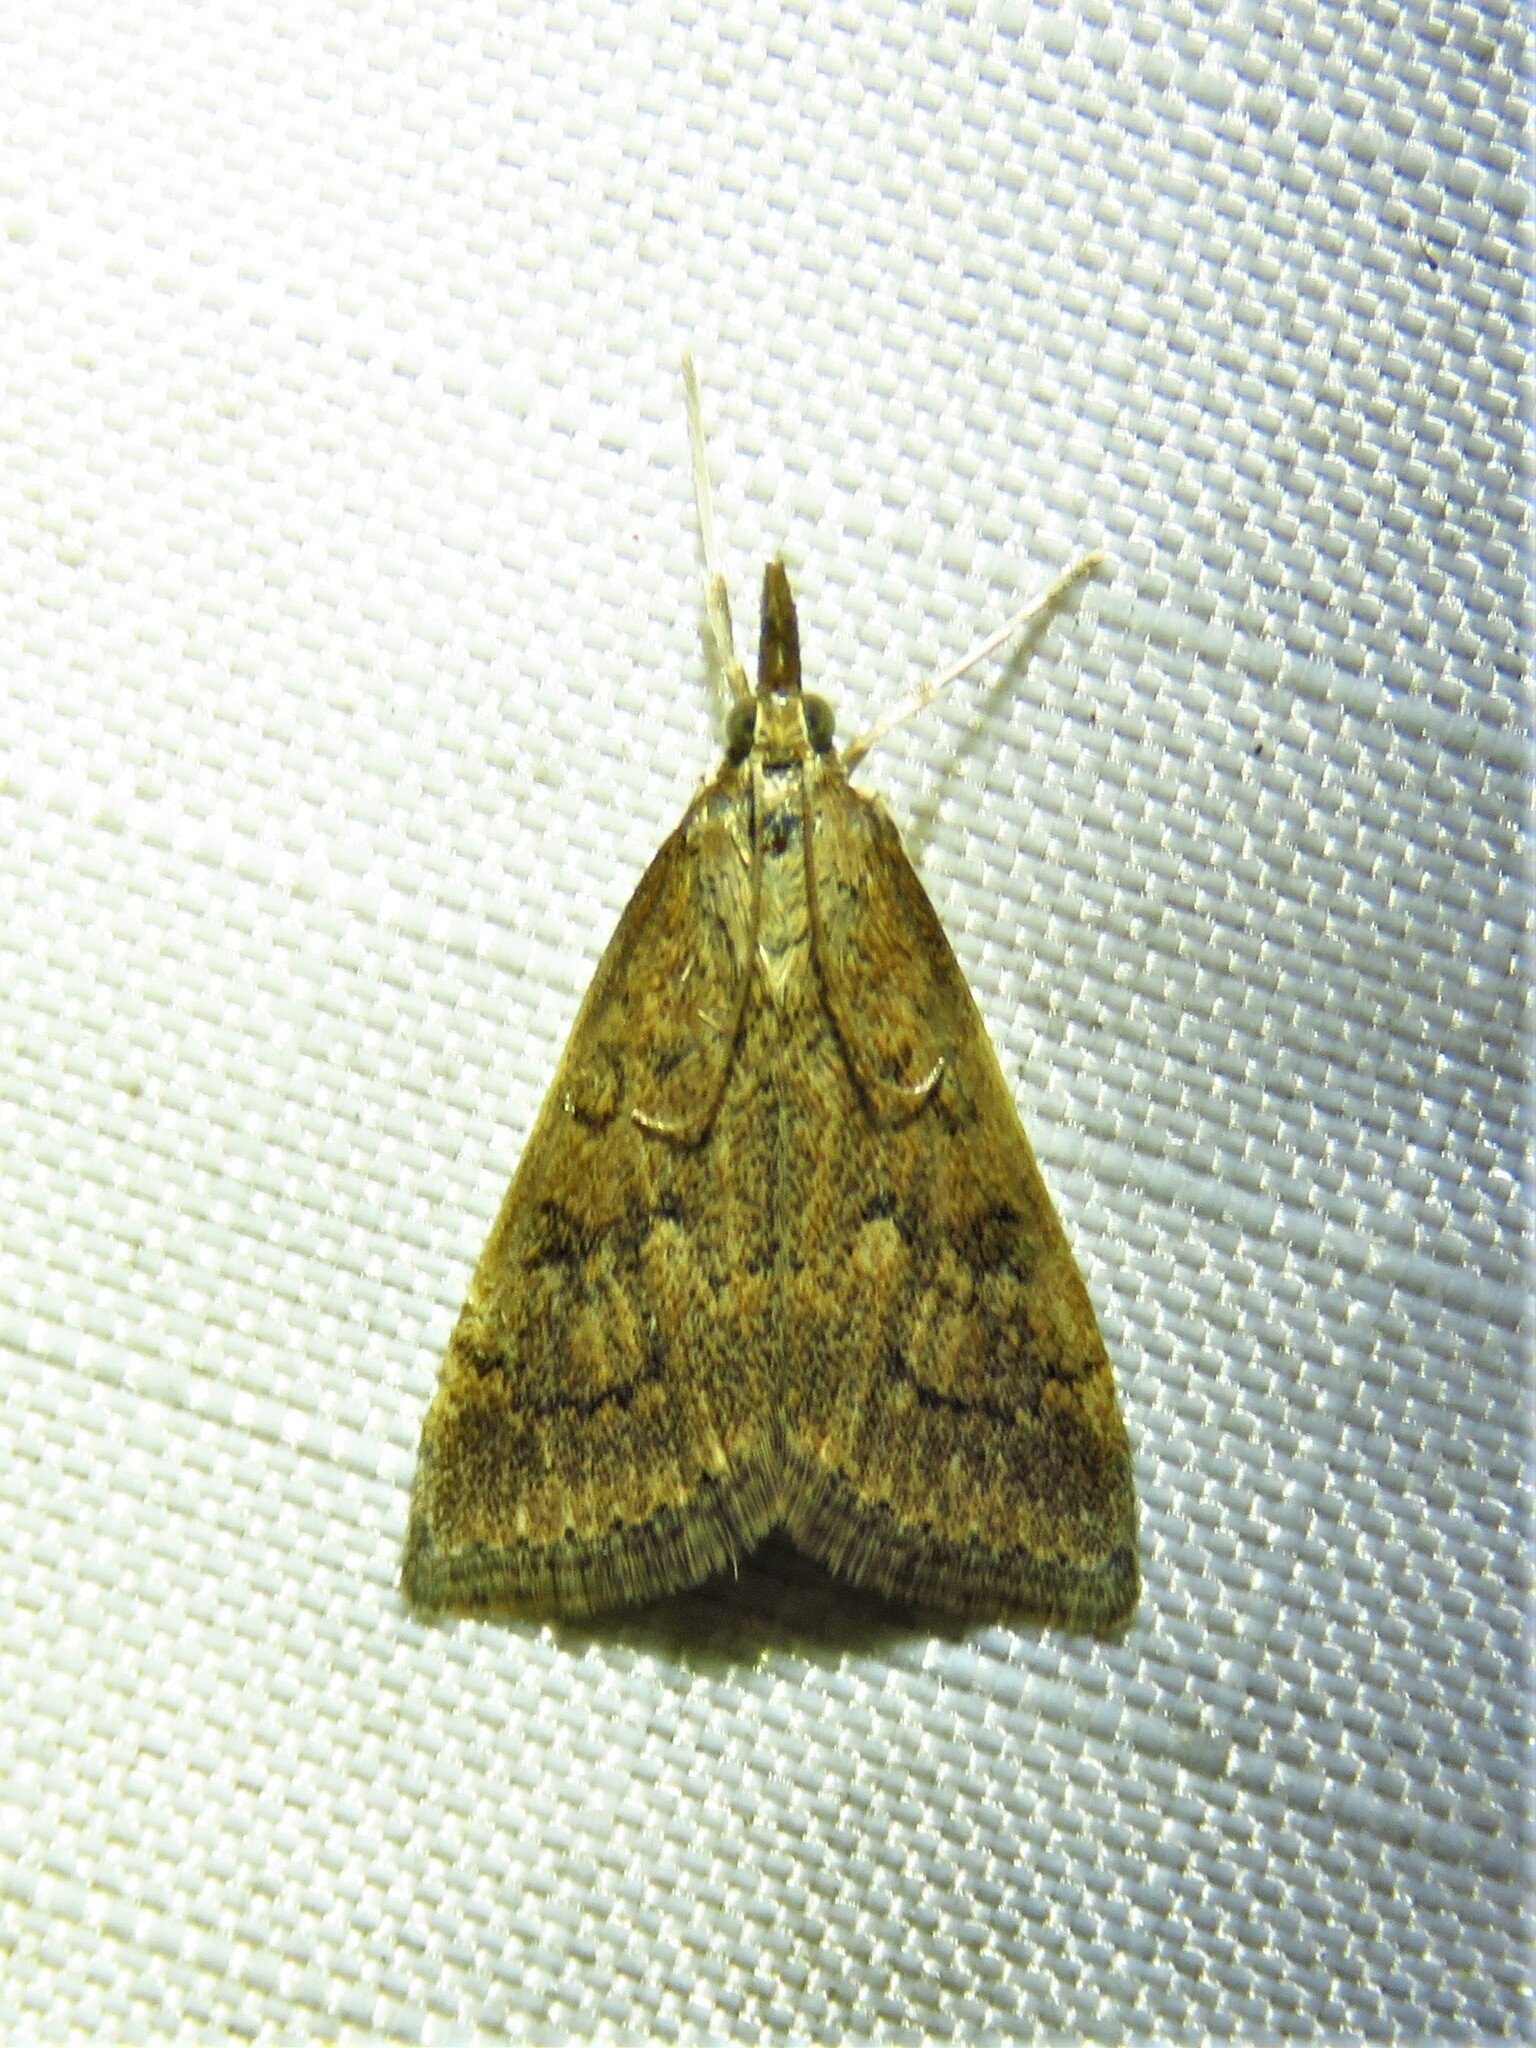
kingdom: Animalia
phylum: Arthropoda
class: Insecta
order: Lepidoptera
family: Crambidae
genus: Udea
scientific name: Udea rubigalis
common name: Celery leaftier moth
